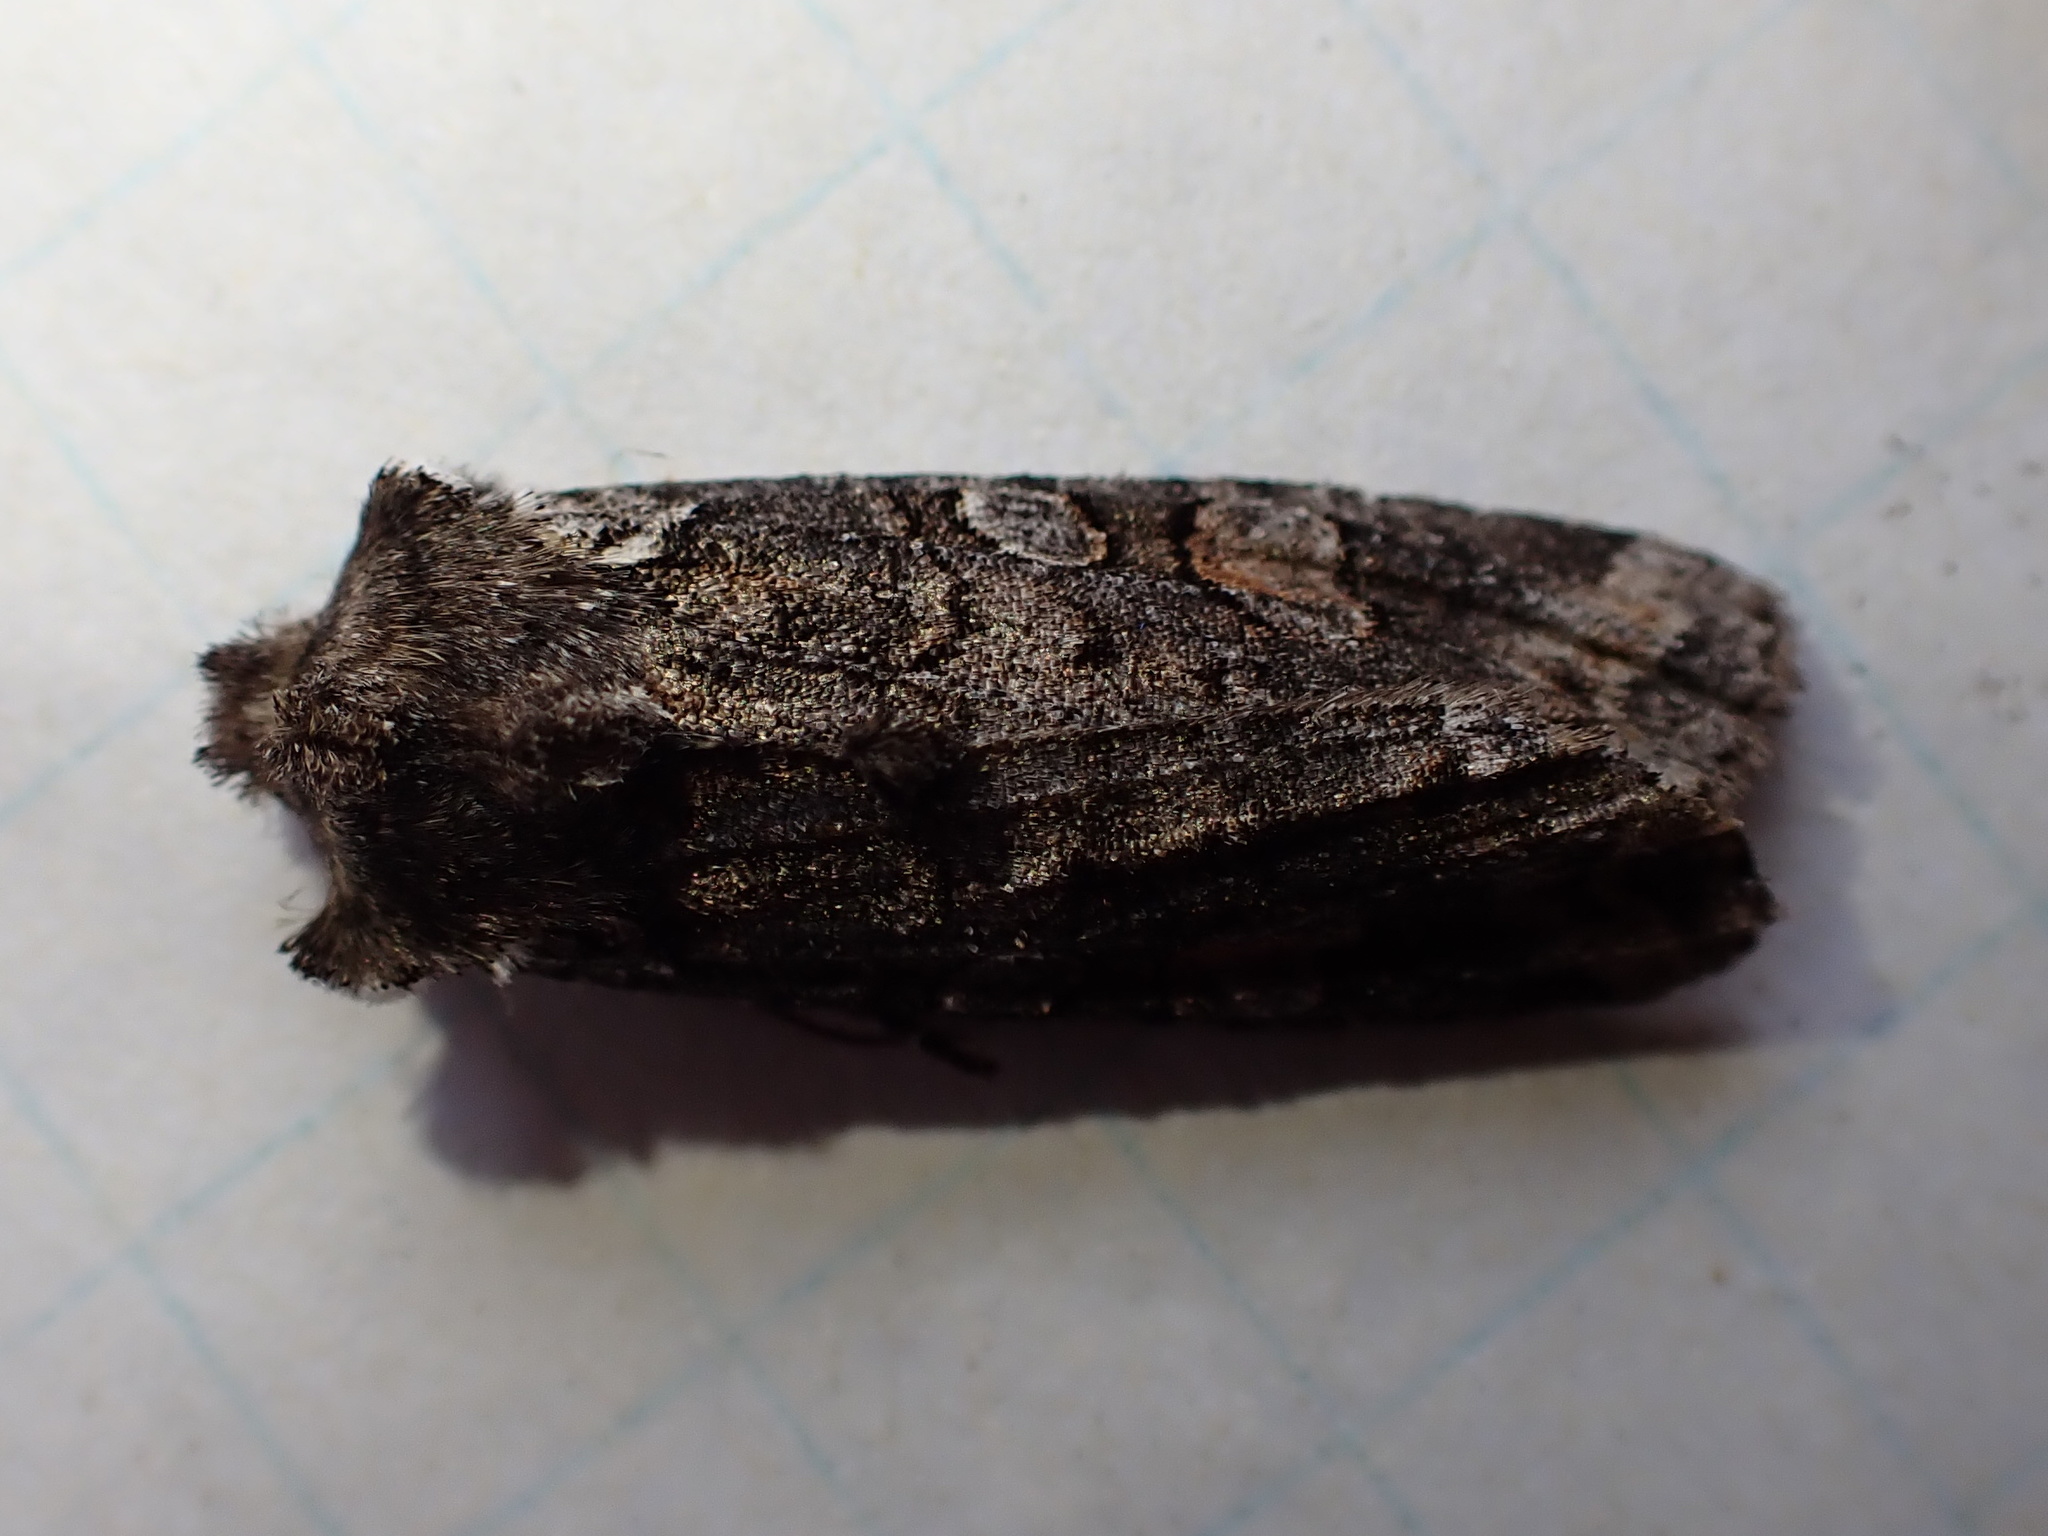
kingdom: Animalia
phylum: Arthropoda
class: Insecta
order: Lepidoptera
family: Noctuidae
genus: Lithophane
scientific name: Lithophane pexata
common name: Plush-naped pinion moth
